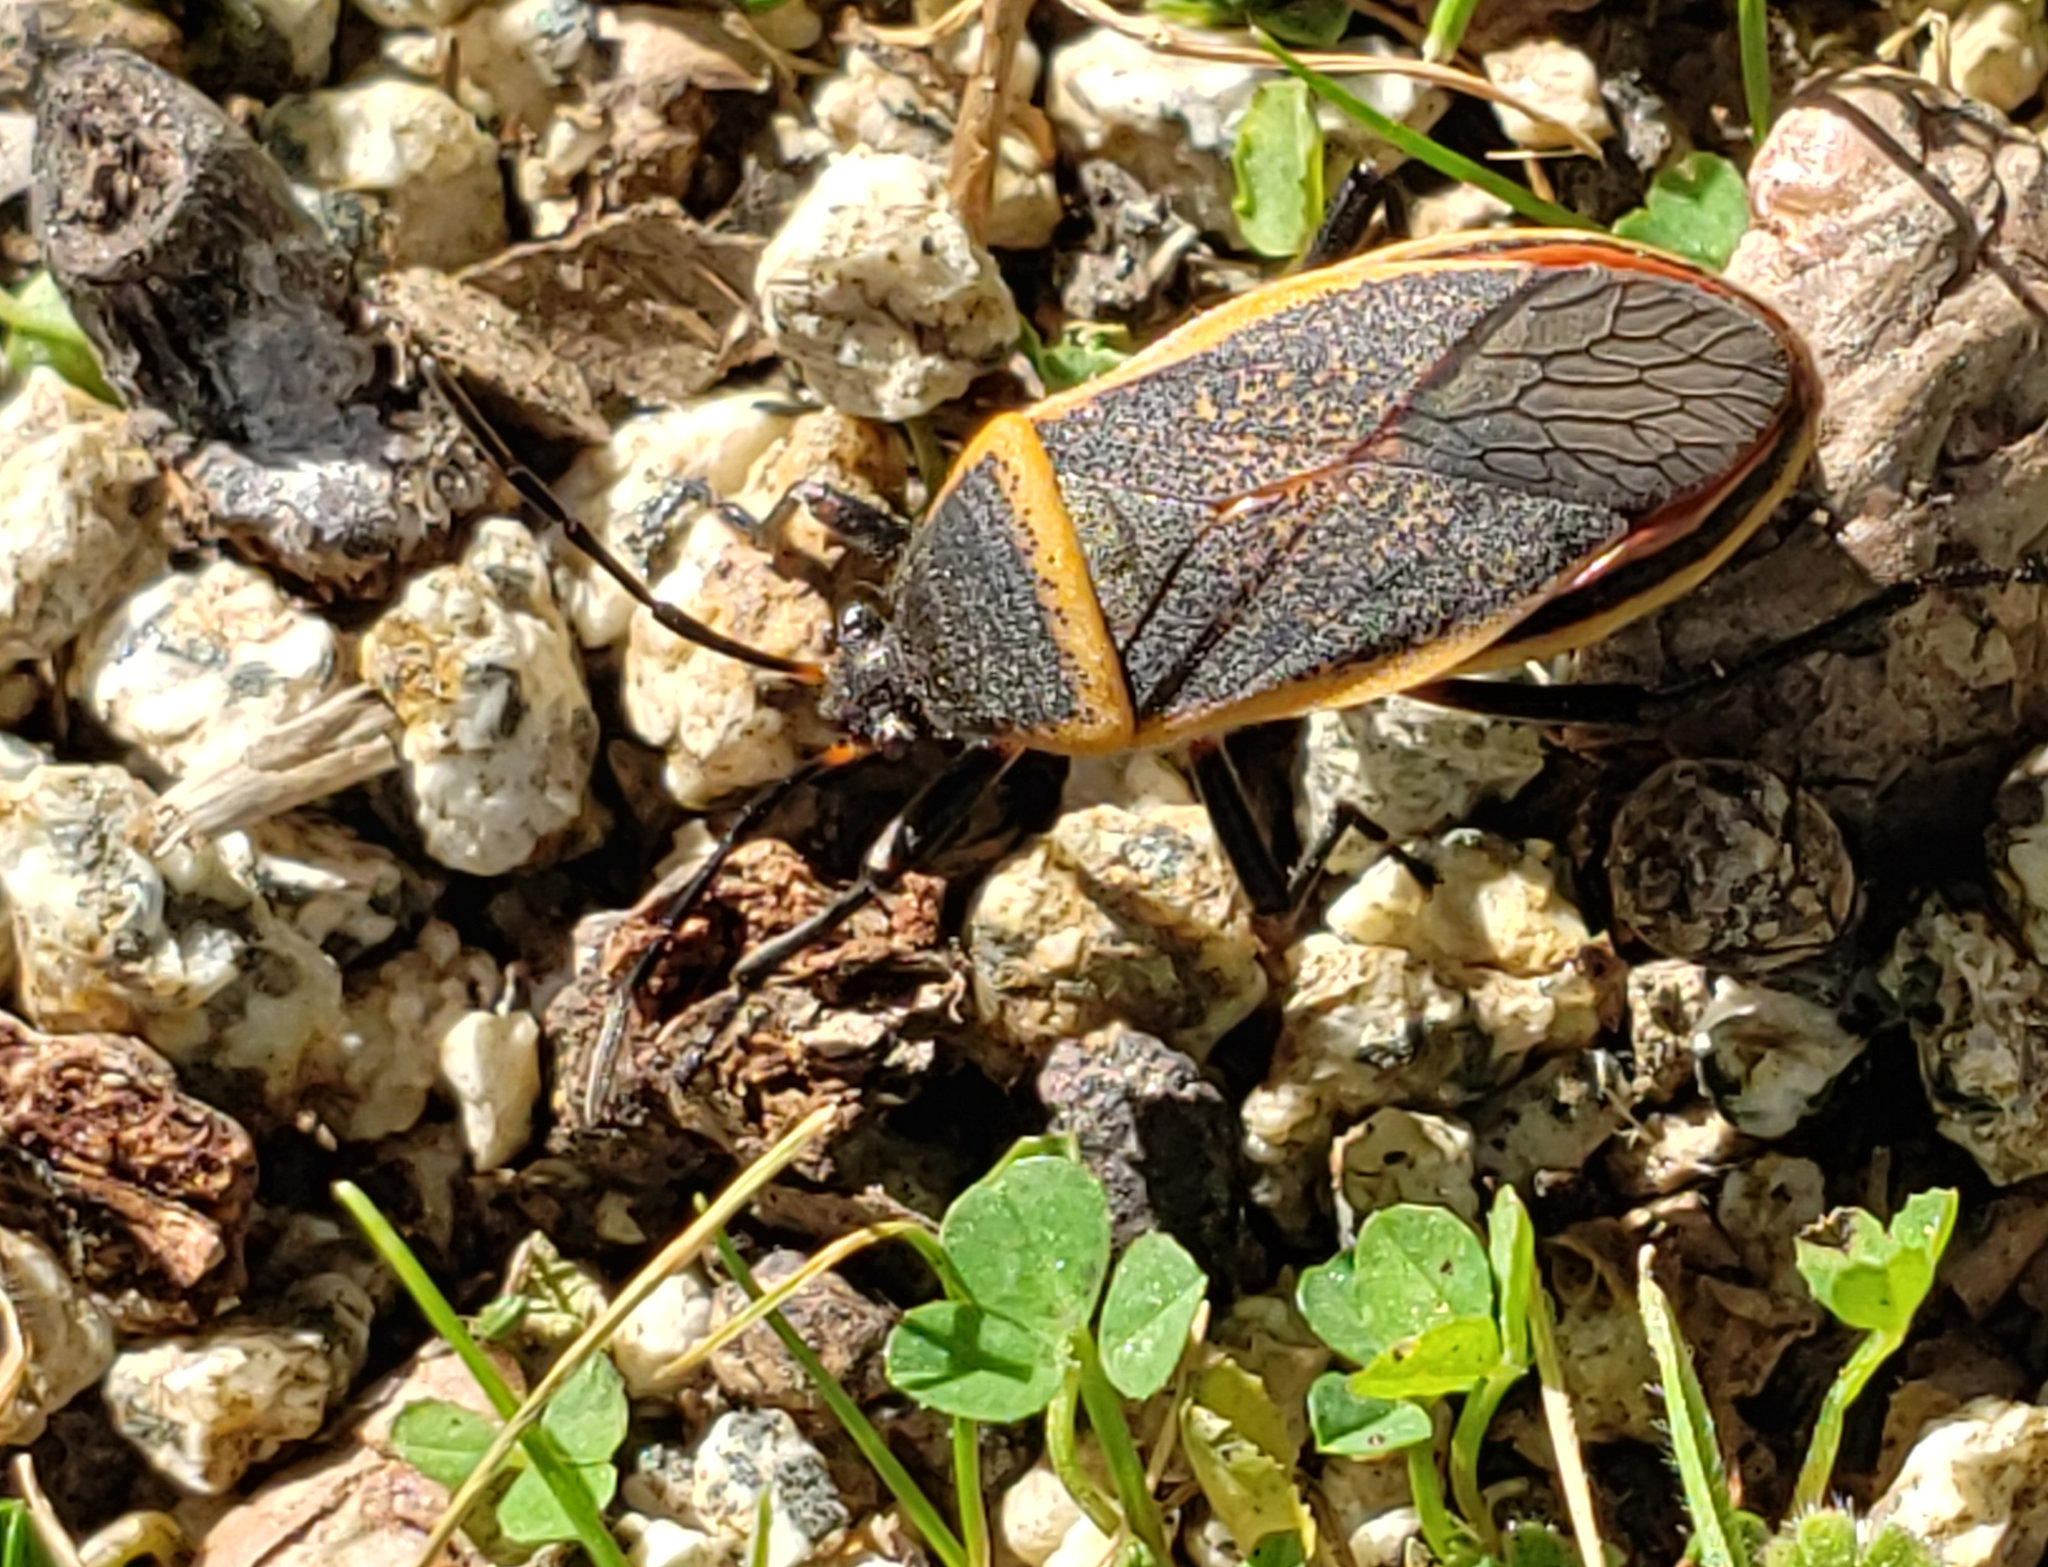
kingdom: Animalia
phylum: Arthropoda
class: Insecta
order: Hemiptera
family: Largidae
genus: Largus
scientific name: Largus californicus
